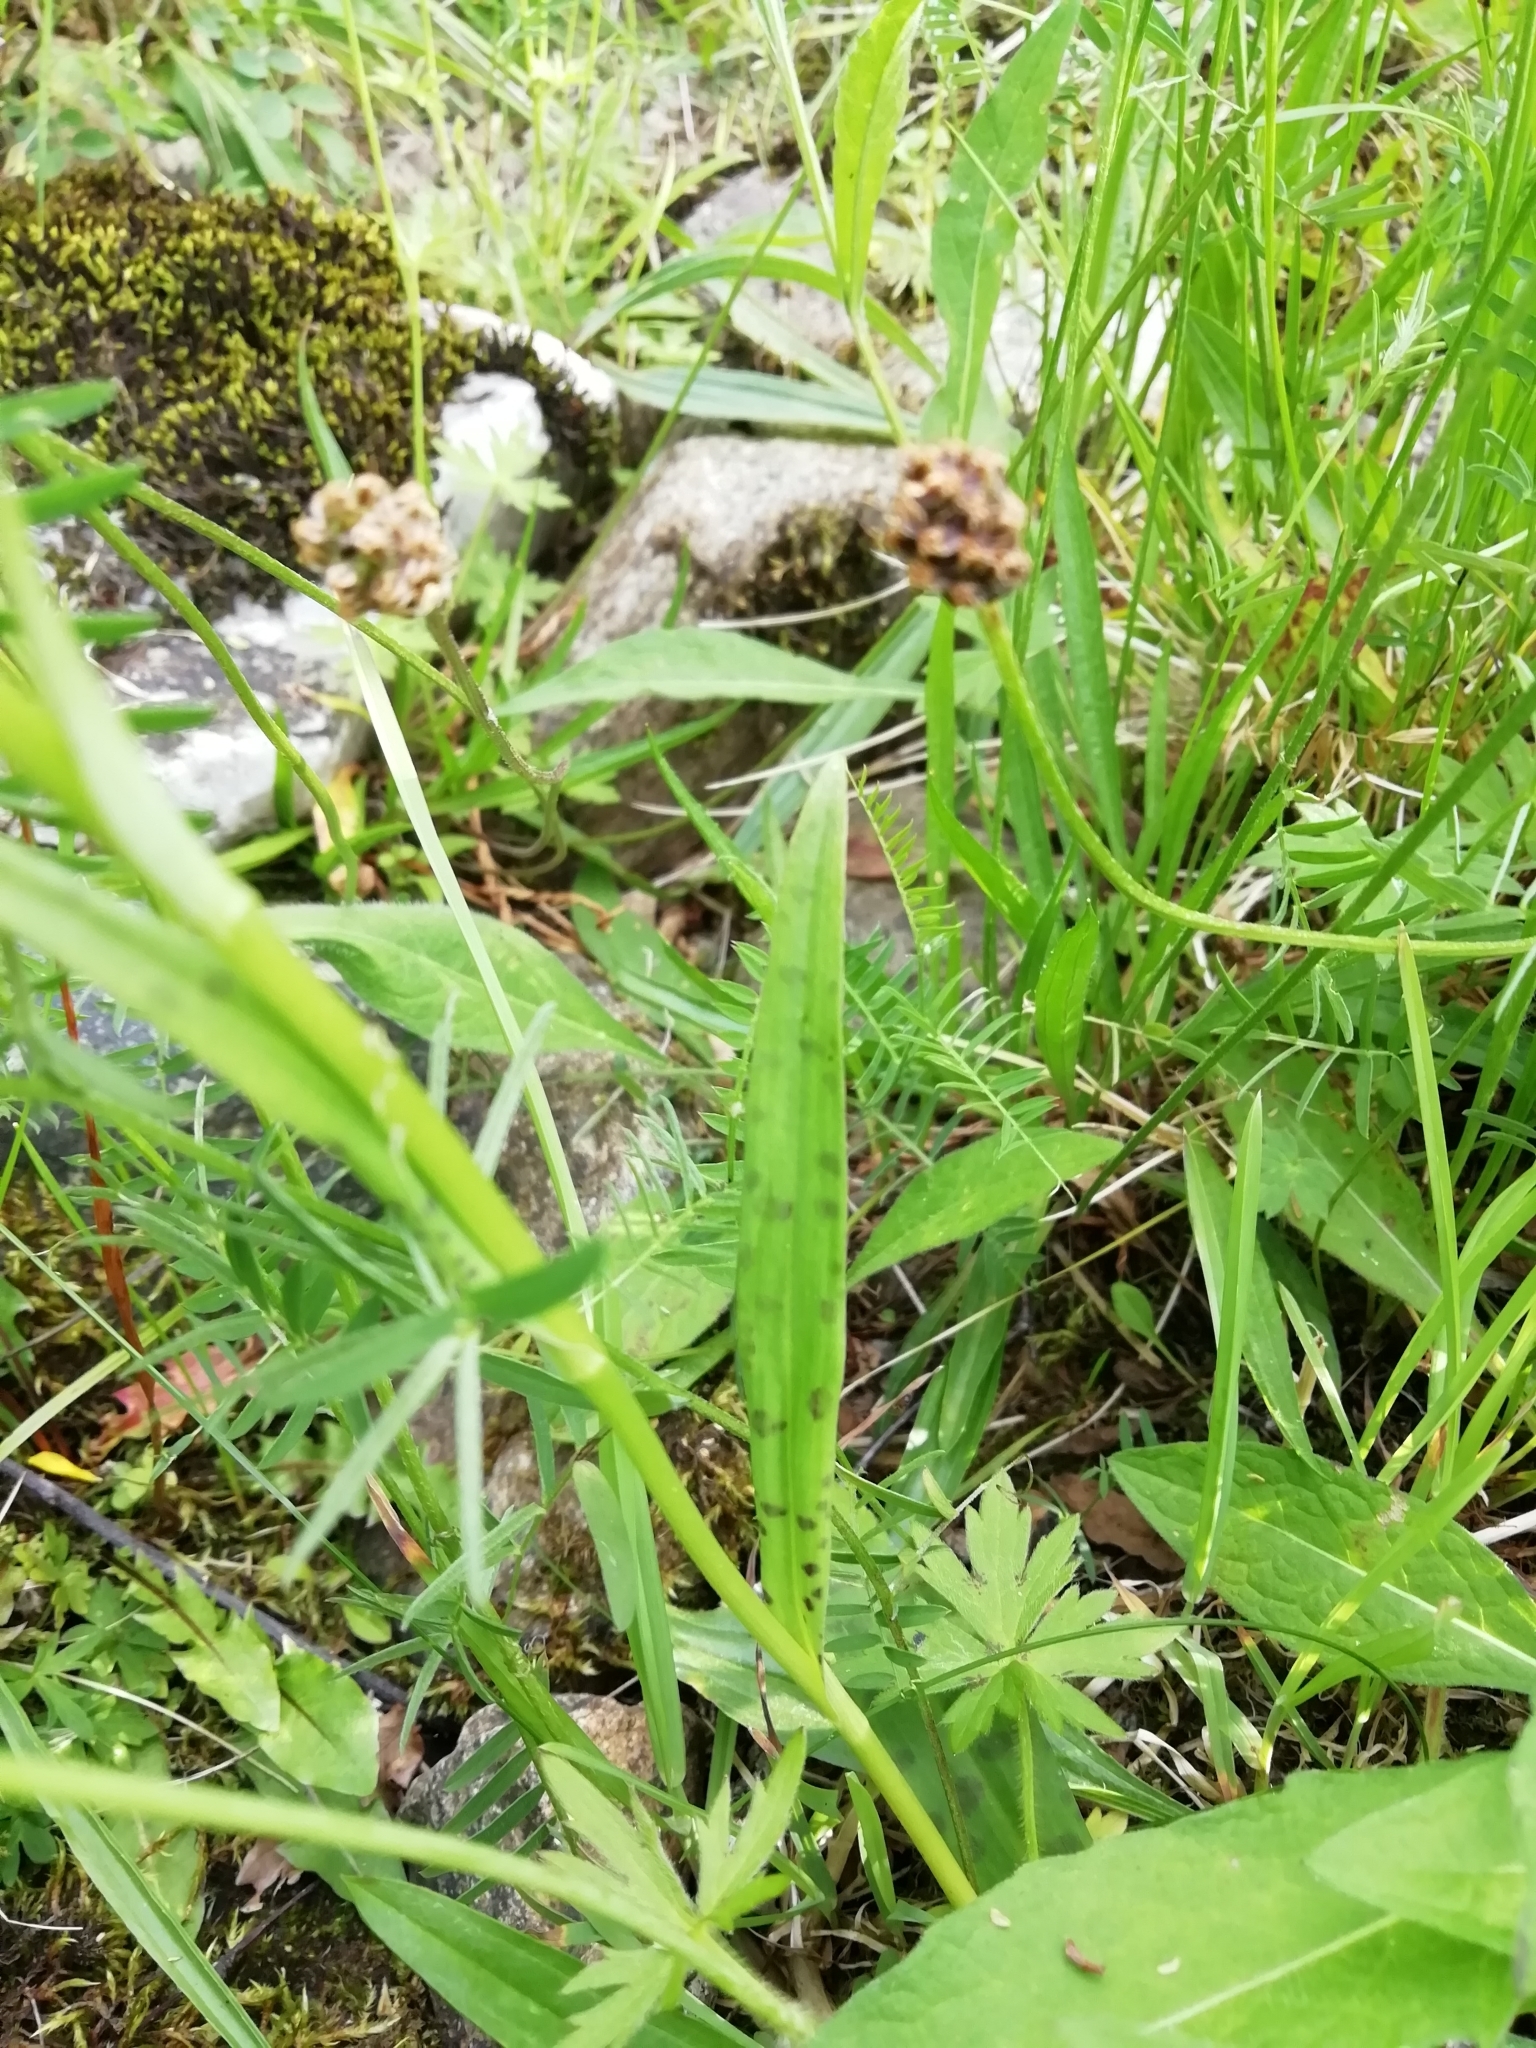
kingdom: Plantae
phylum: Tracheophyta
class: Liliopsida
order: Asparagales
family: Orchidaceae
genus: Dactylorhiza
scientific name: Dactylorhiza maculata
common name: Heath spotted-orchid
